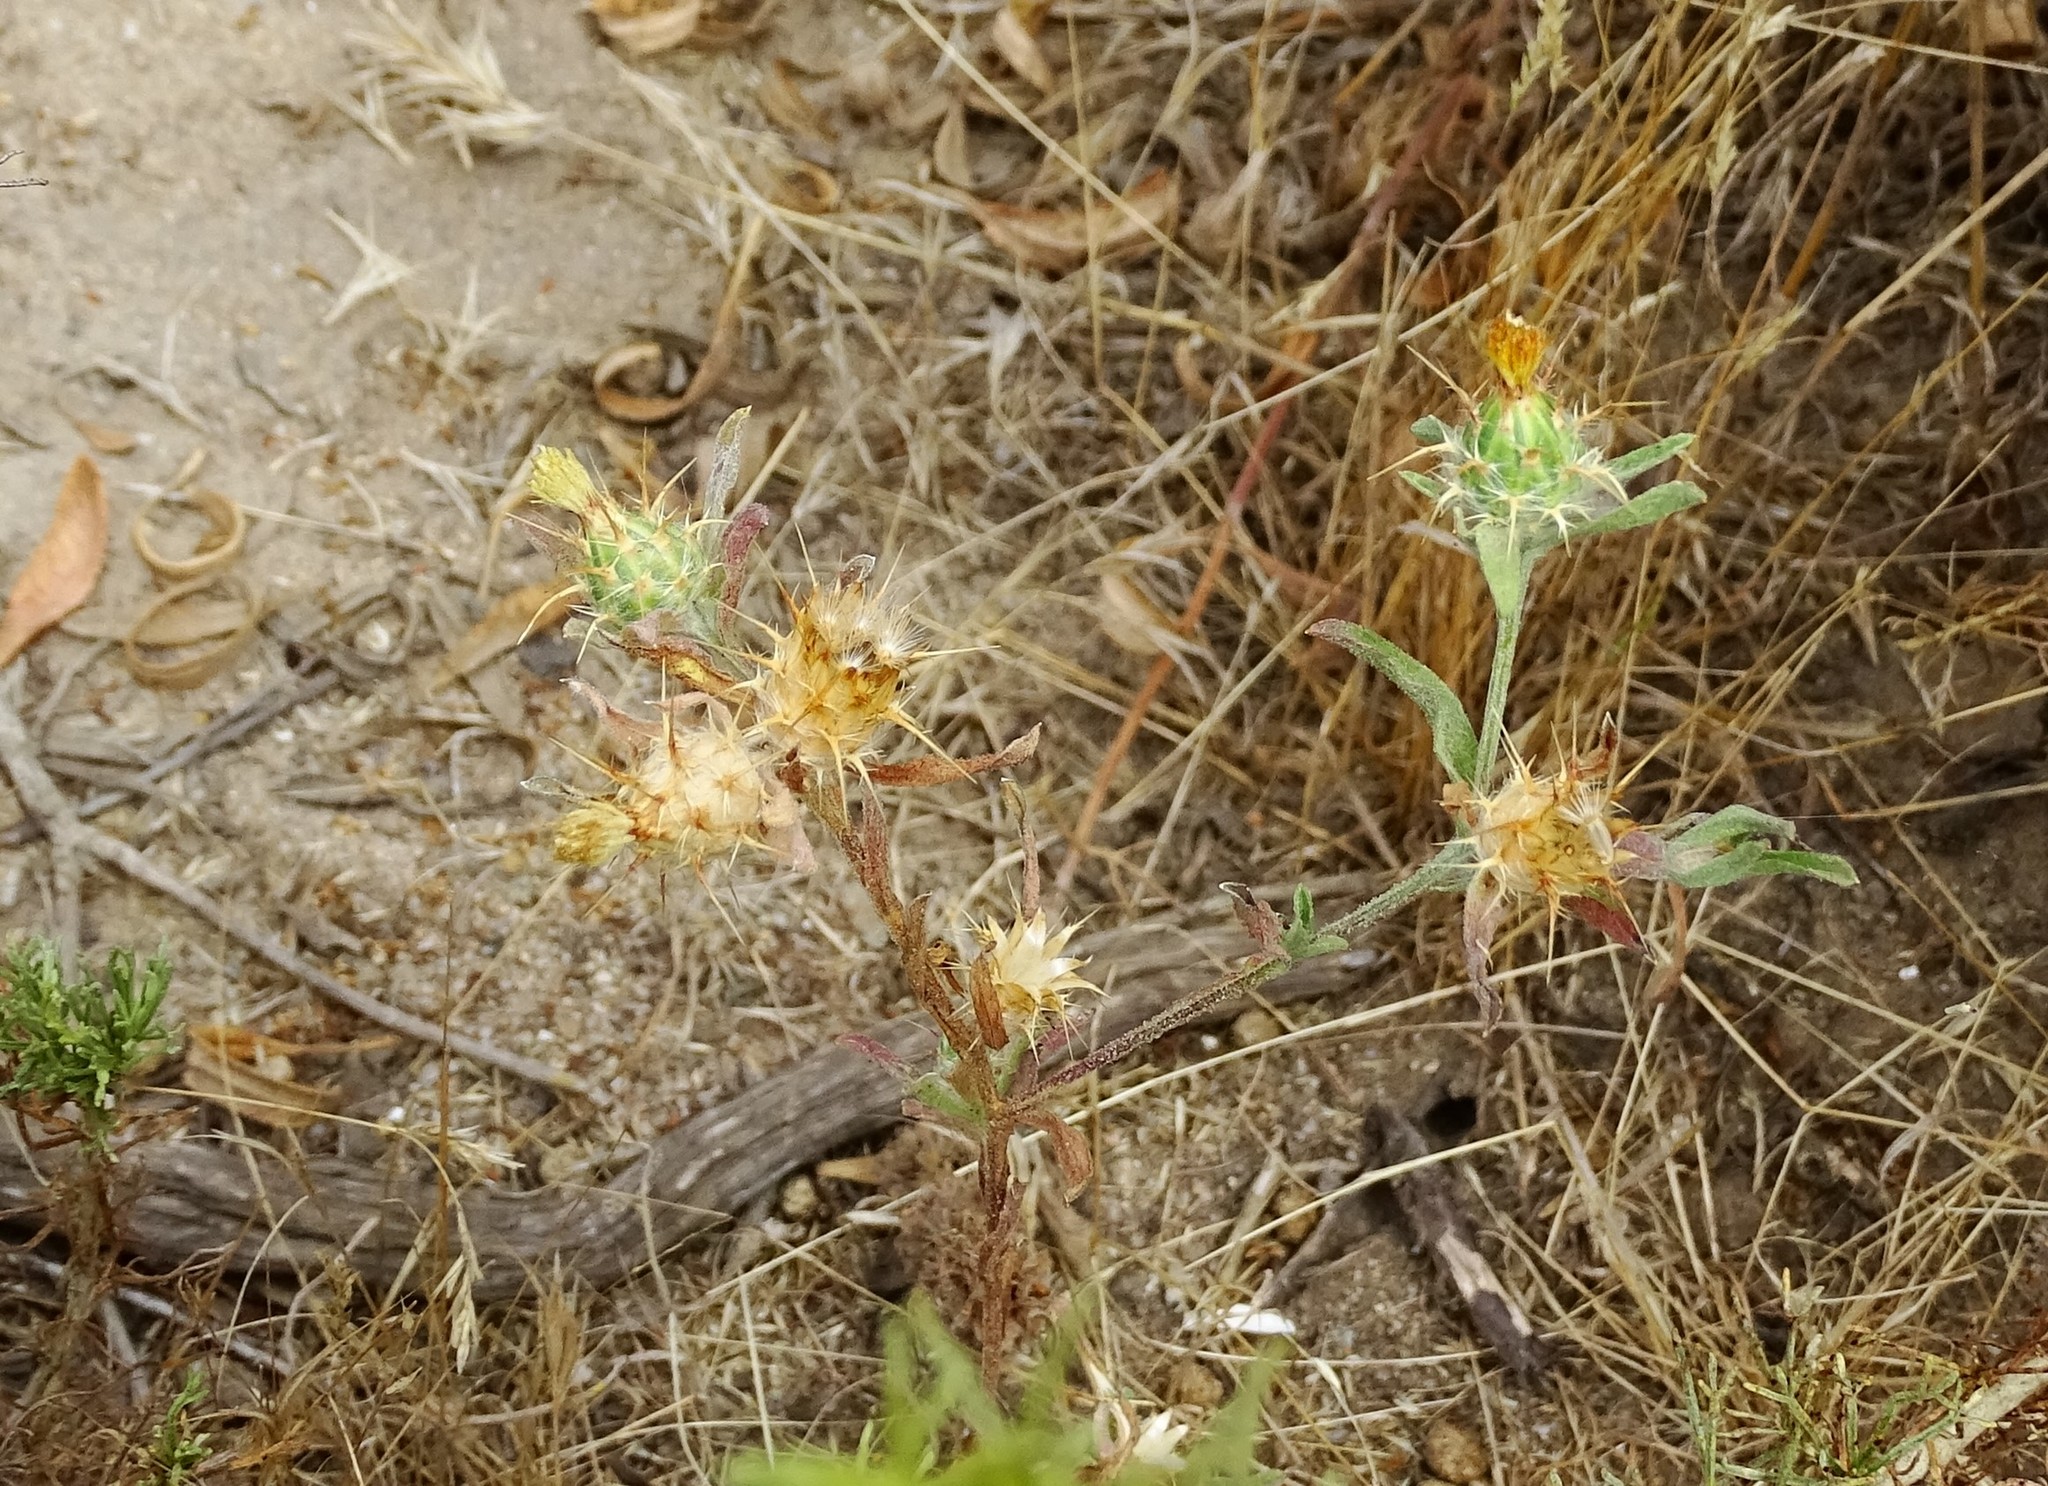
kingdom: Plantae
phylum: Tracheophyta
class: Magnoliopsida
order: Asterales
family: Asteraceae
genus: Centaurea
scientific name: Centaurea melitensis
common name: Maltese star-thistle
